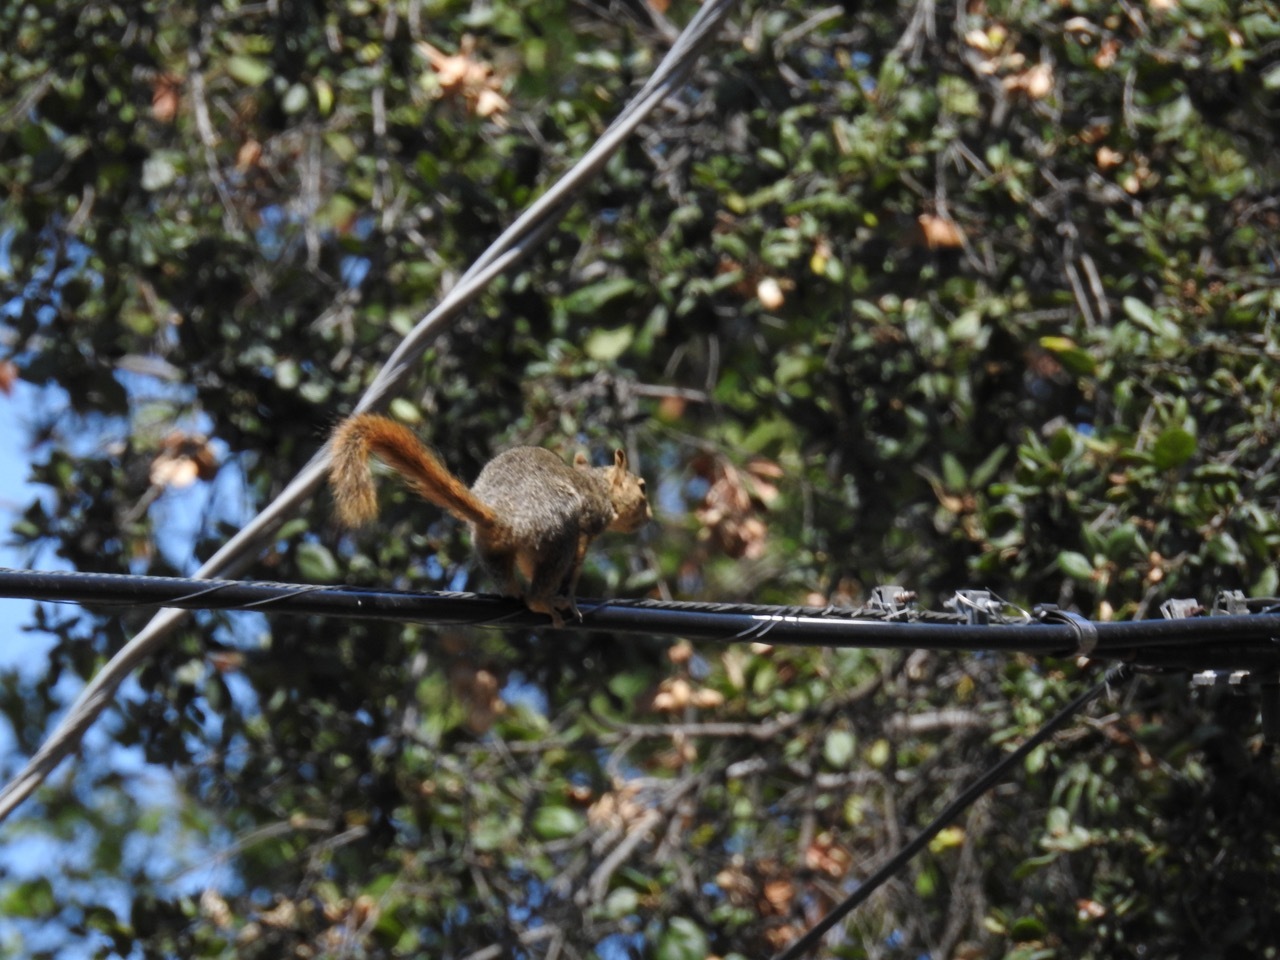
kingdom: Animalia
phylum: Chordata
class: Mammalia
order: Rodentia
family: Sciuridae
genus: Sciurus
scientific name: Sciurus niger
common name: Fox squirrel
